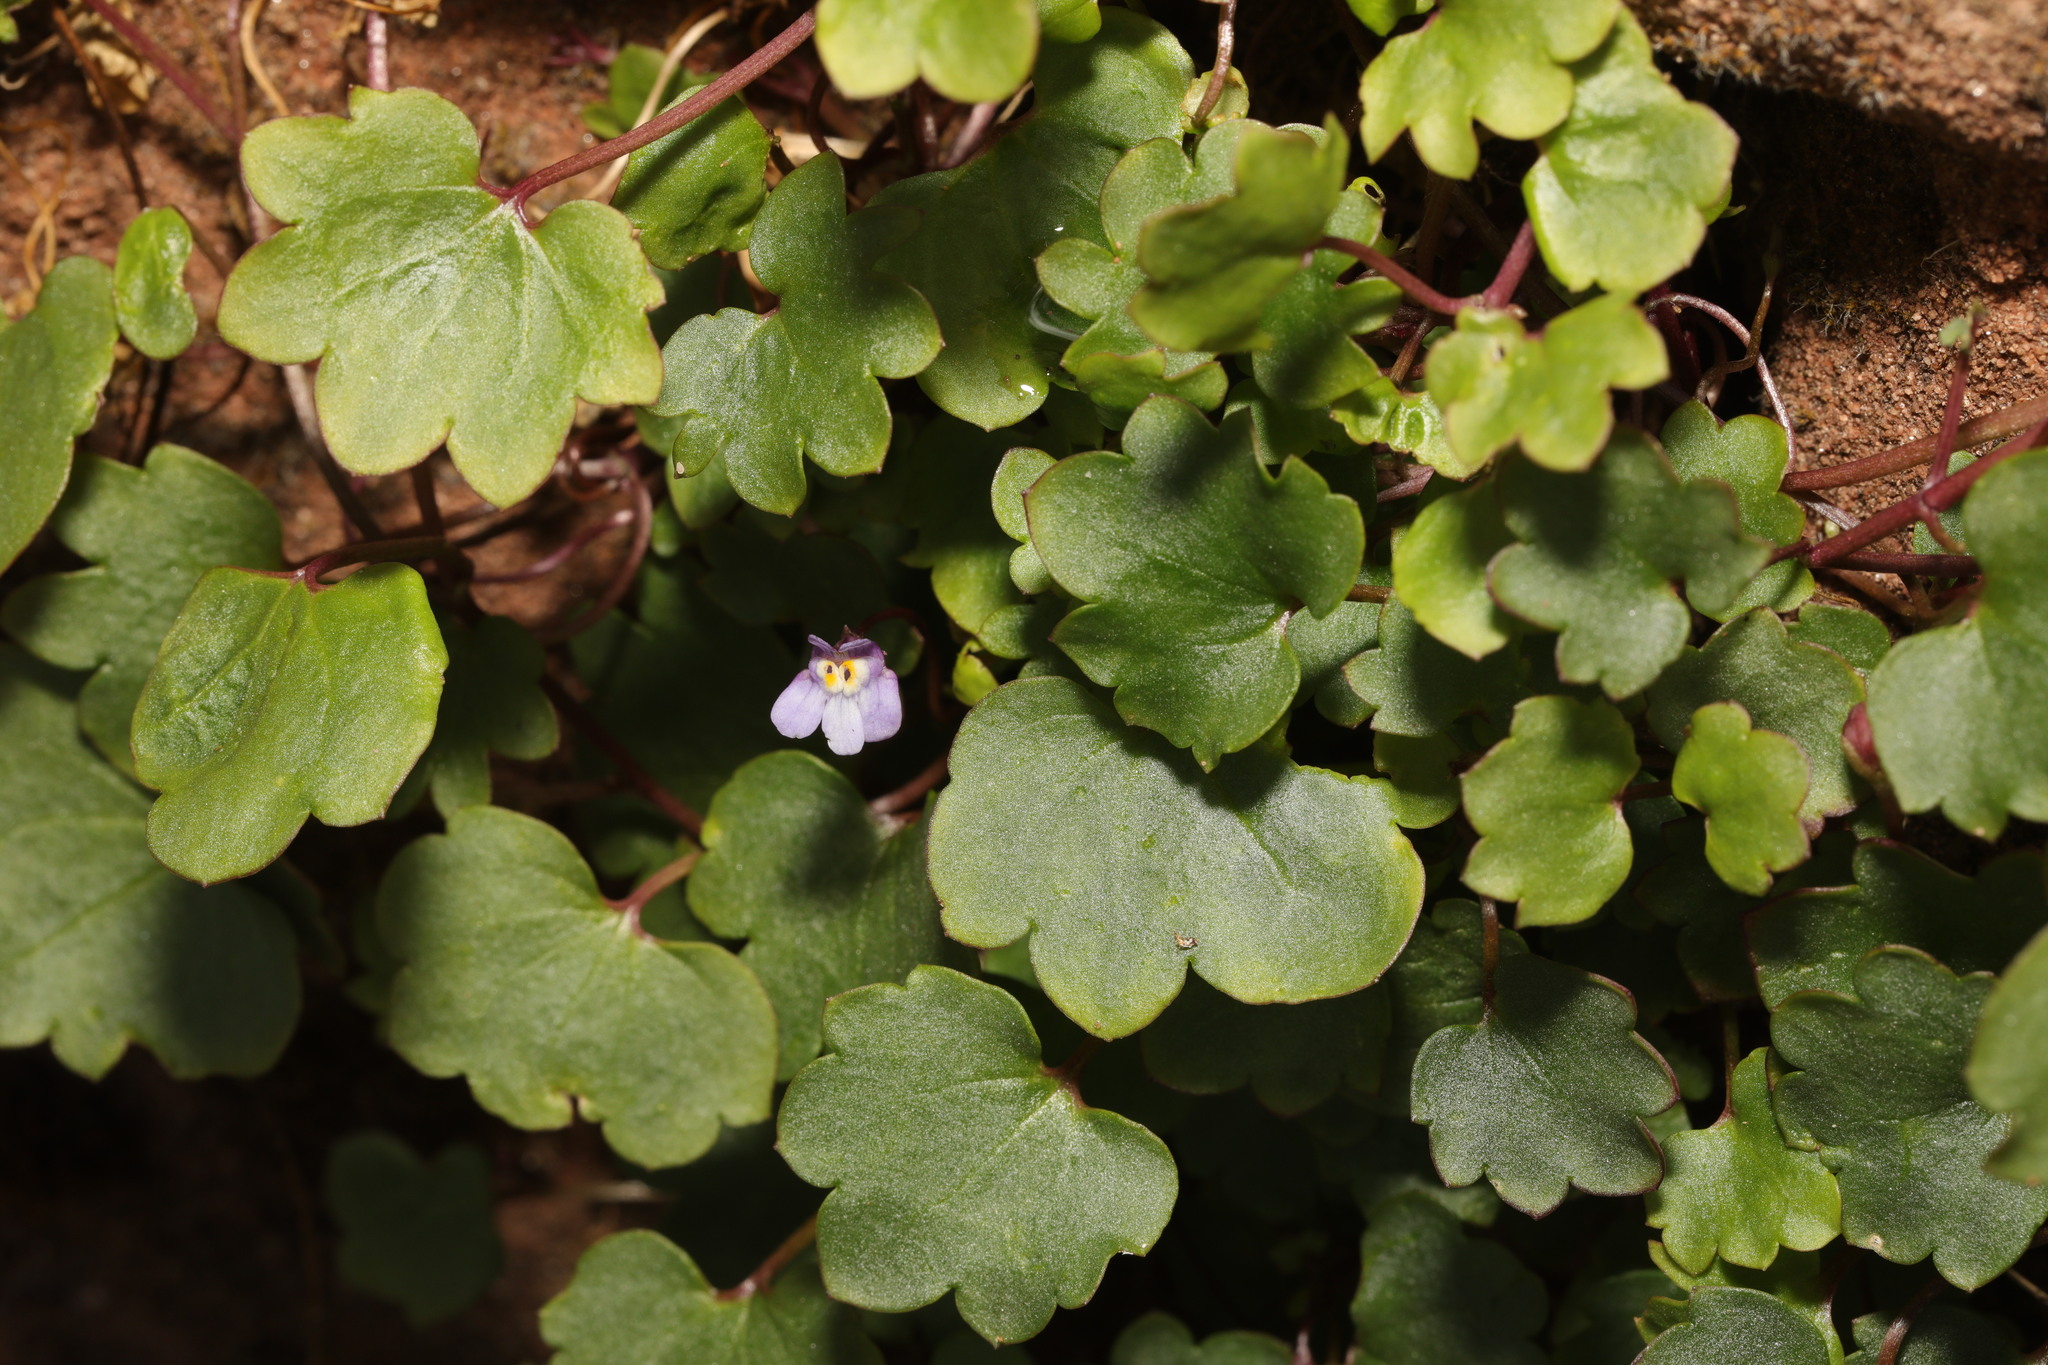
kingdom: Plantae
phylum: Tracheophyta
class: Magnoliopsida
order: Lamiales
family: Plantaginaceae
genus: Cymbalaria
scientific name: Cymbalaria muralis
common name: Ivy-leaved toadflax
